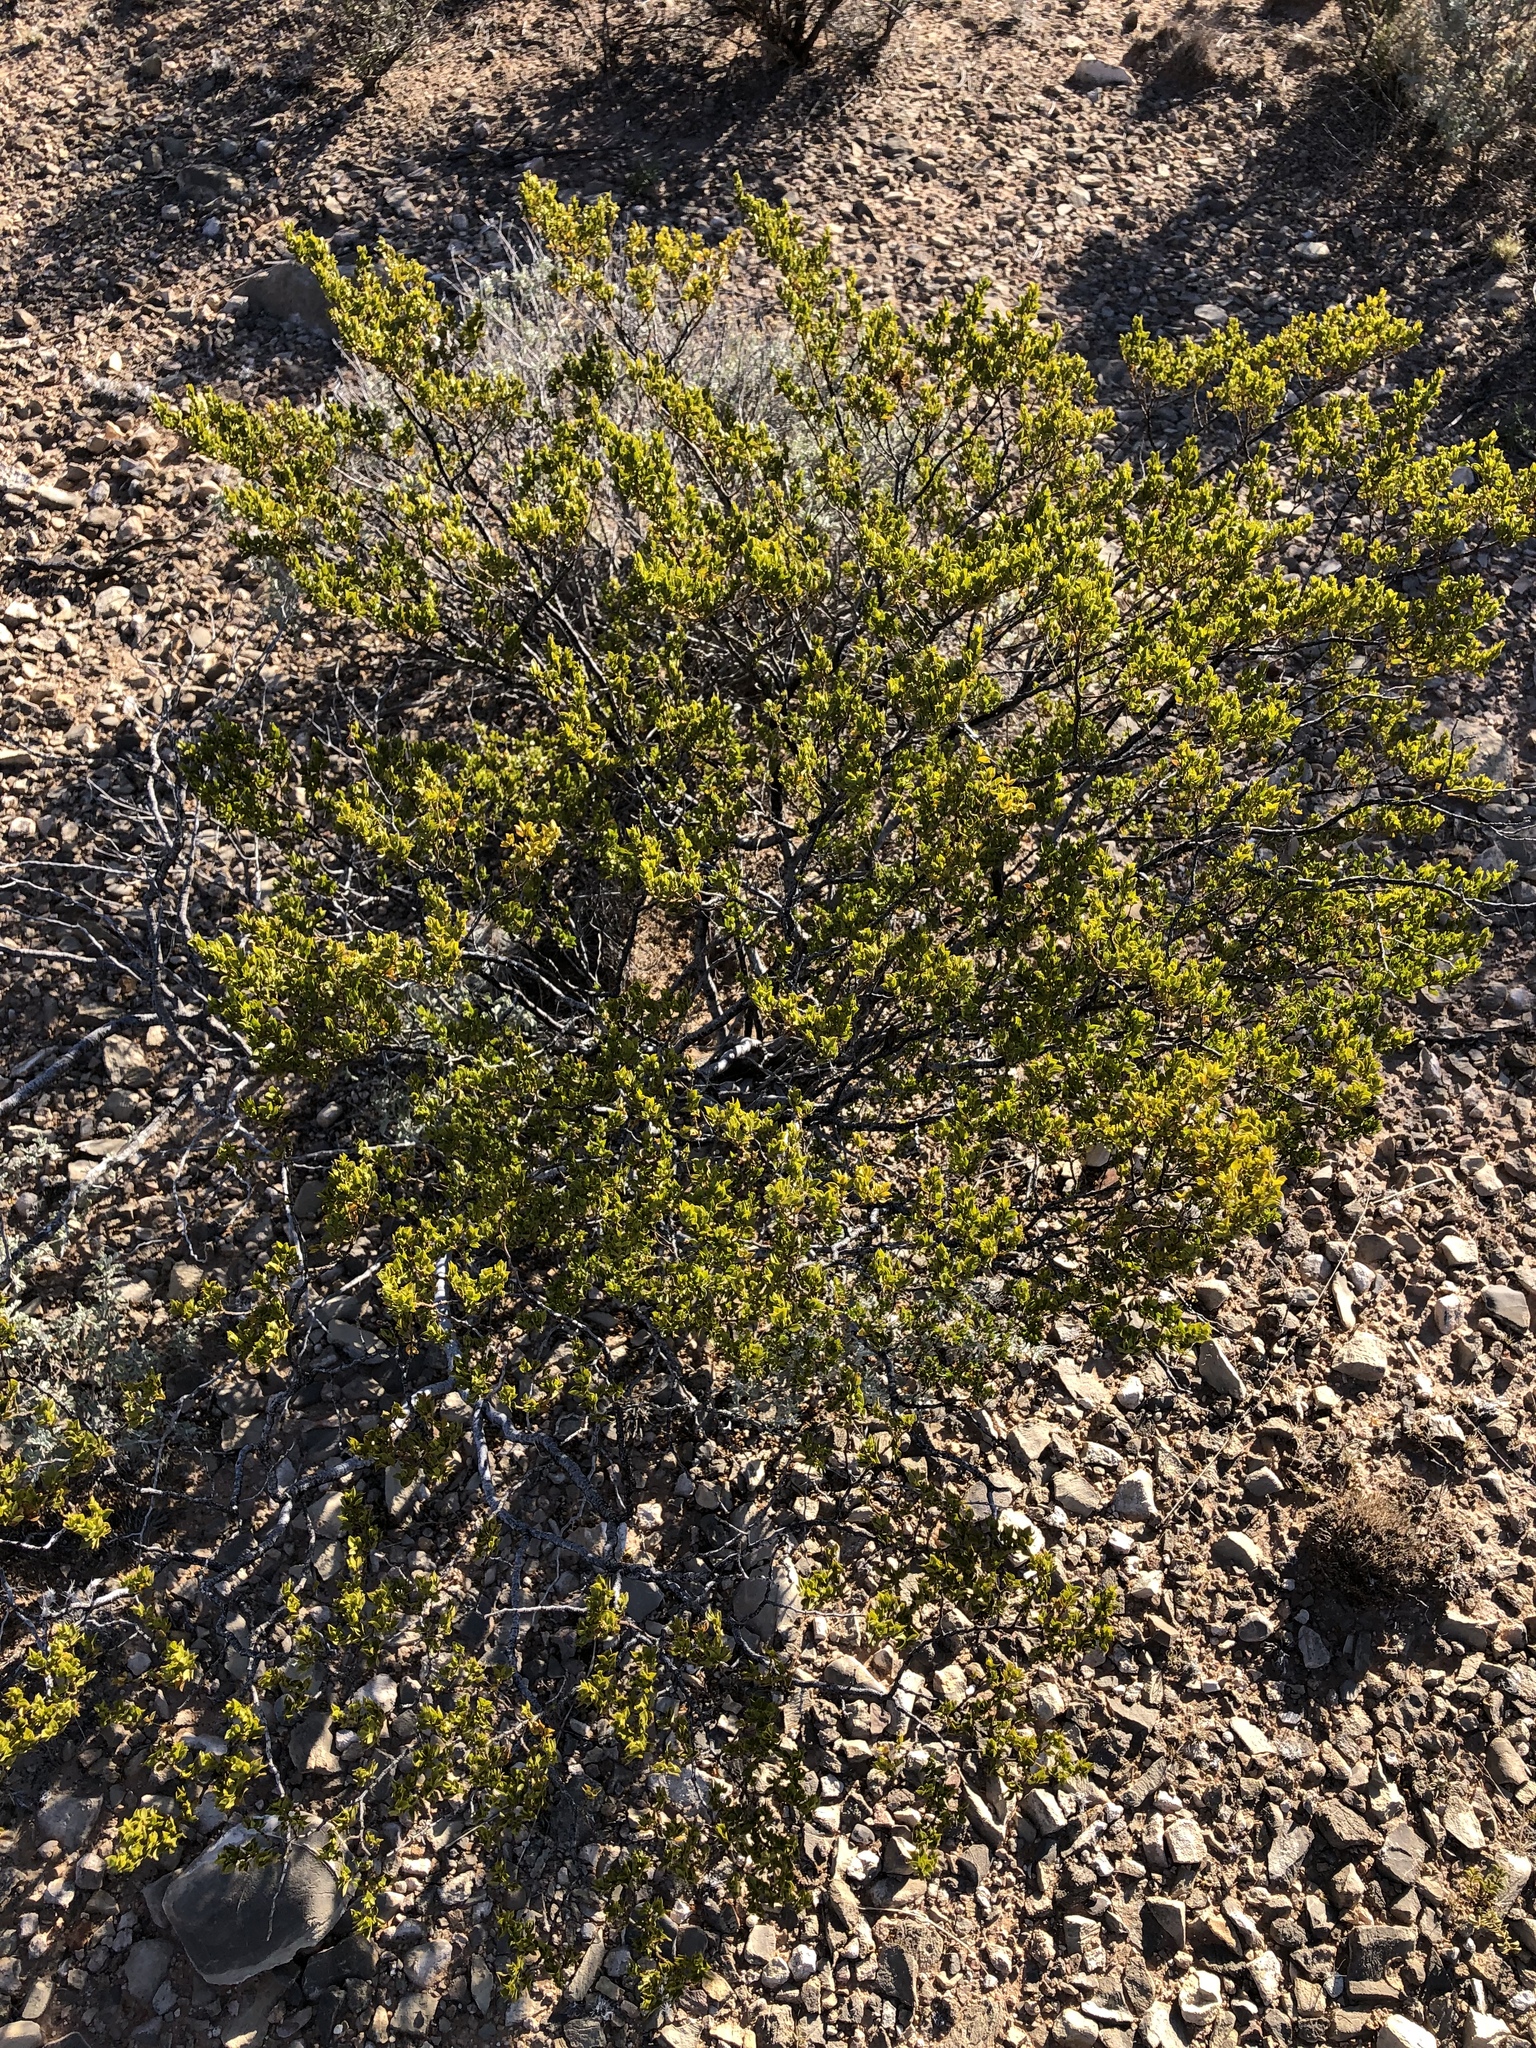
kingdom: Plantae
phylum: Tracheophyta
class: Magnoliopsida
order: Zygophyllales
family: Zygophyllaceae
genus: Larrea
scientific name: Larrea tridentata
